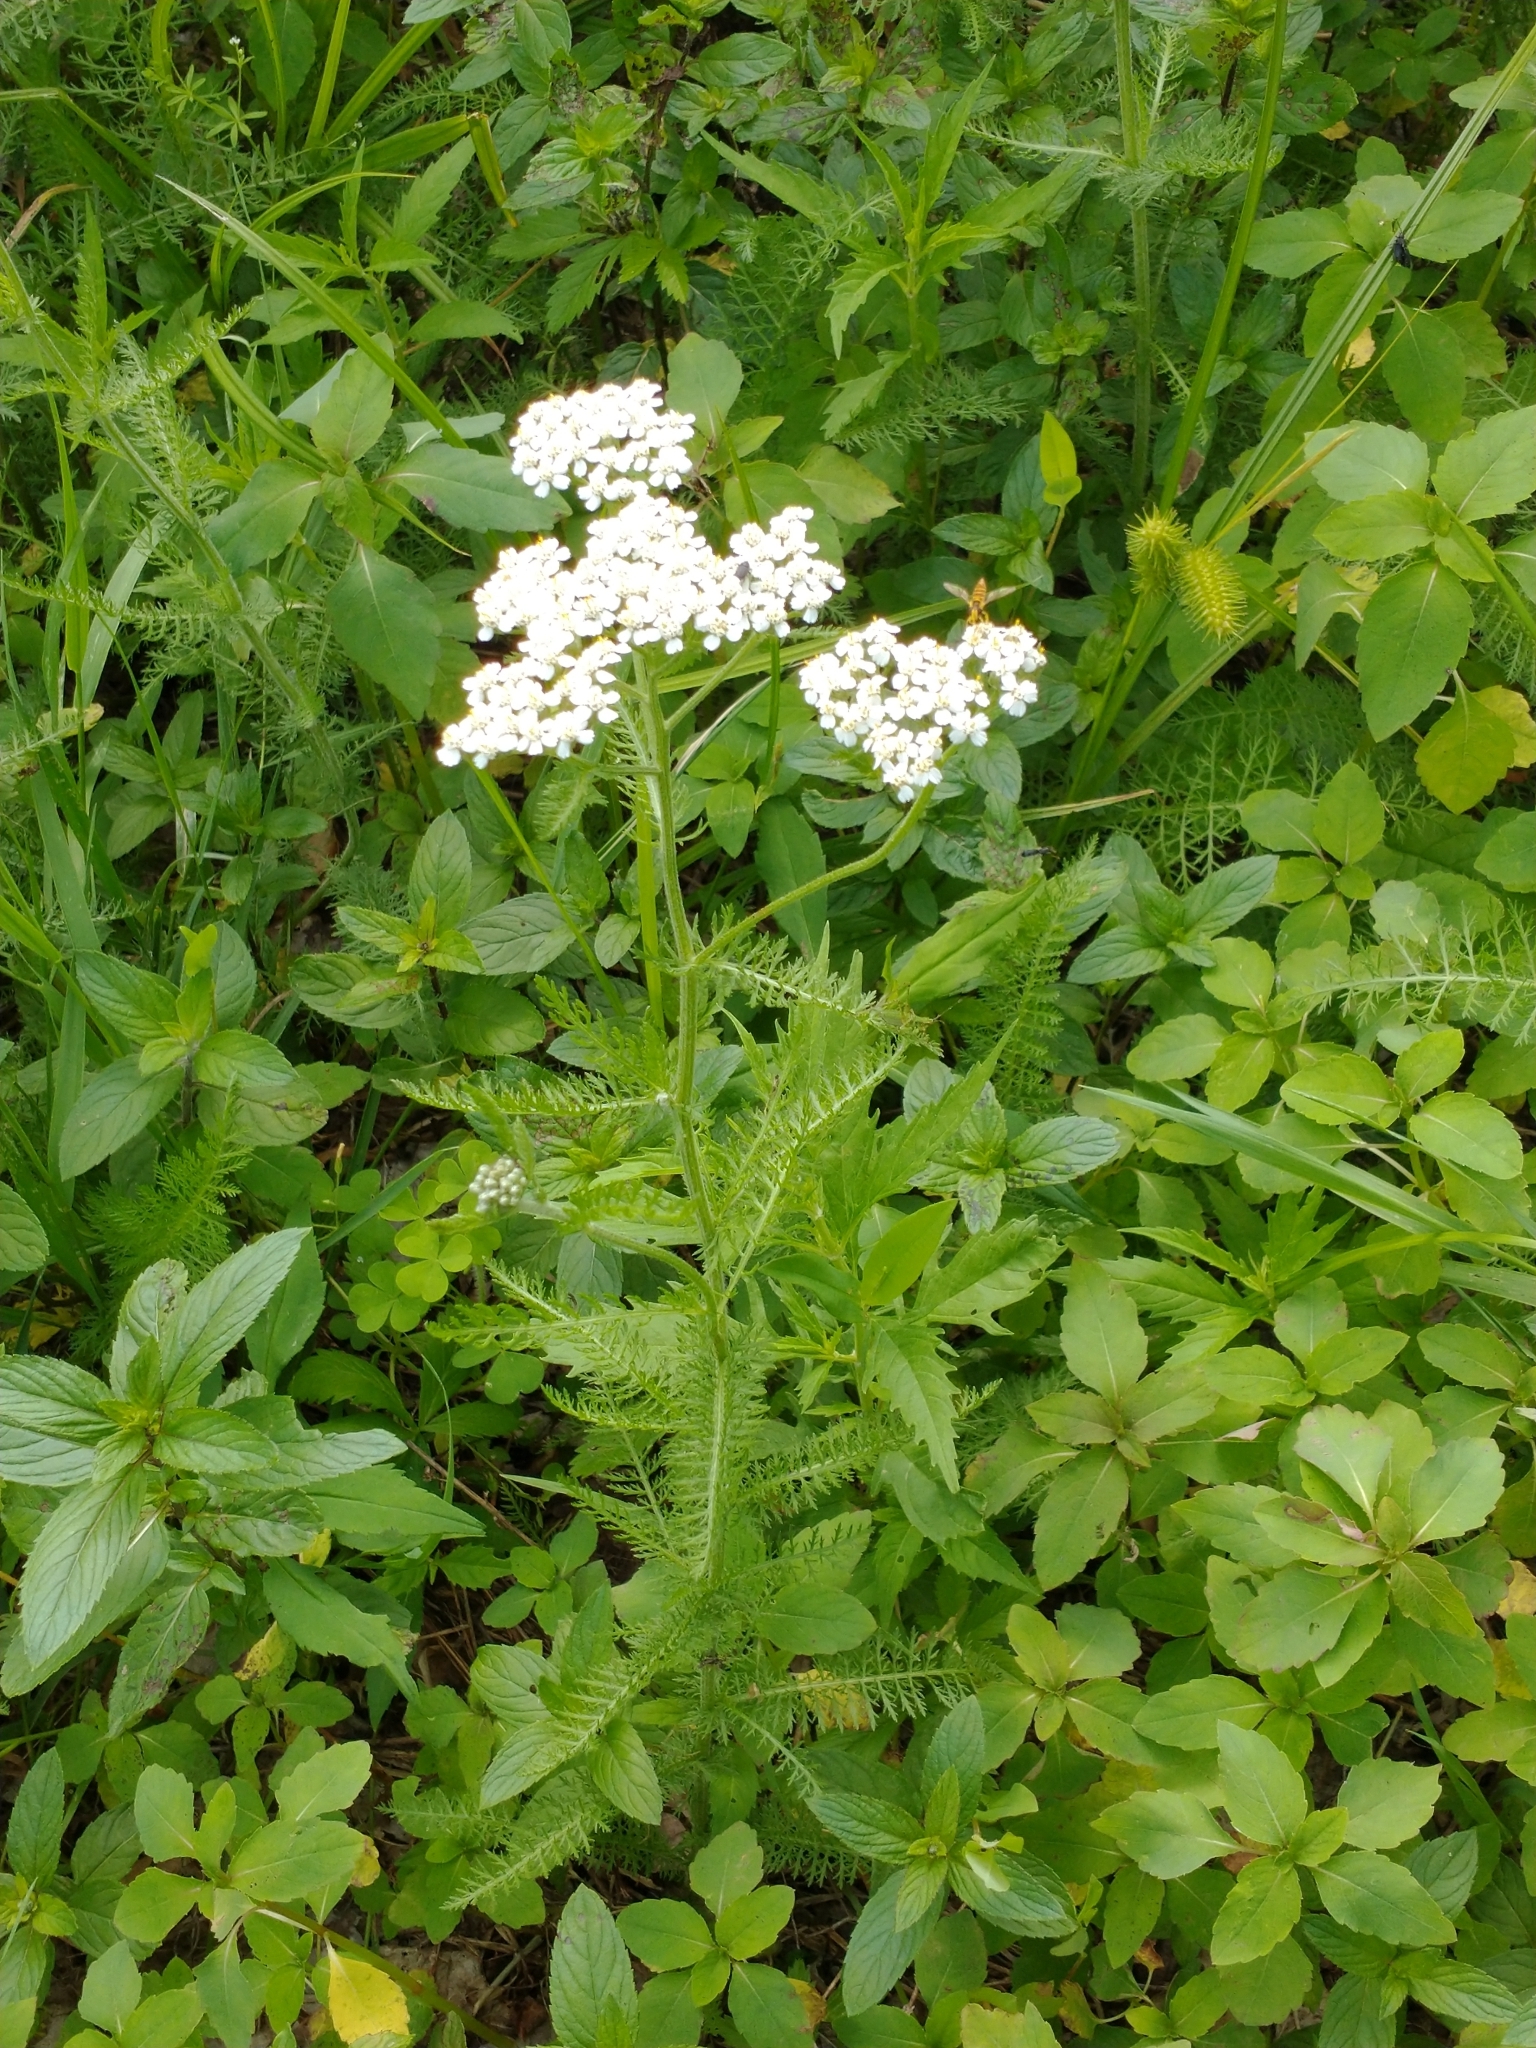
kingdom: Plantae
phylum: Tracheophyta
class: Magnoliopsida
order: Asterales
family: Asteraceae
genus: Achillea
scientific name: Achillea millefolium
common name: Yarrow
